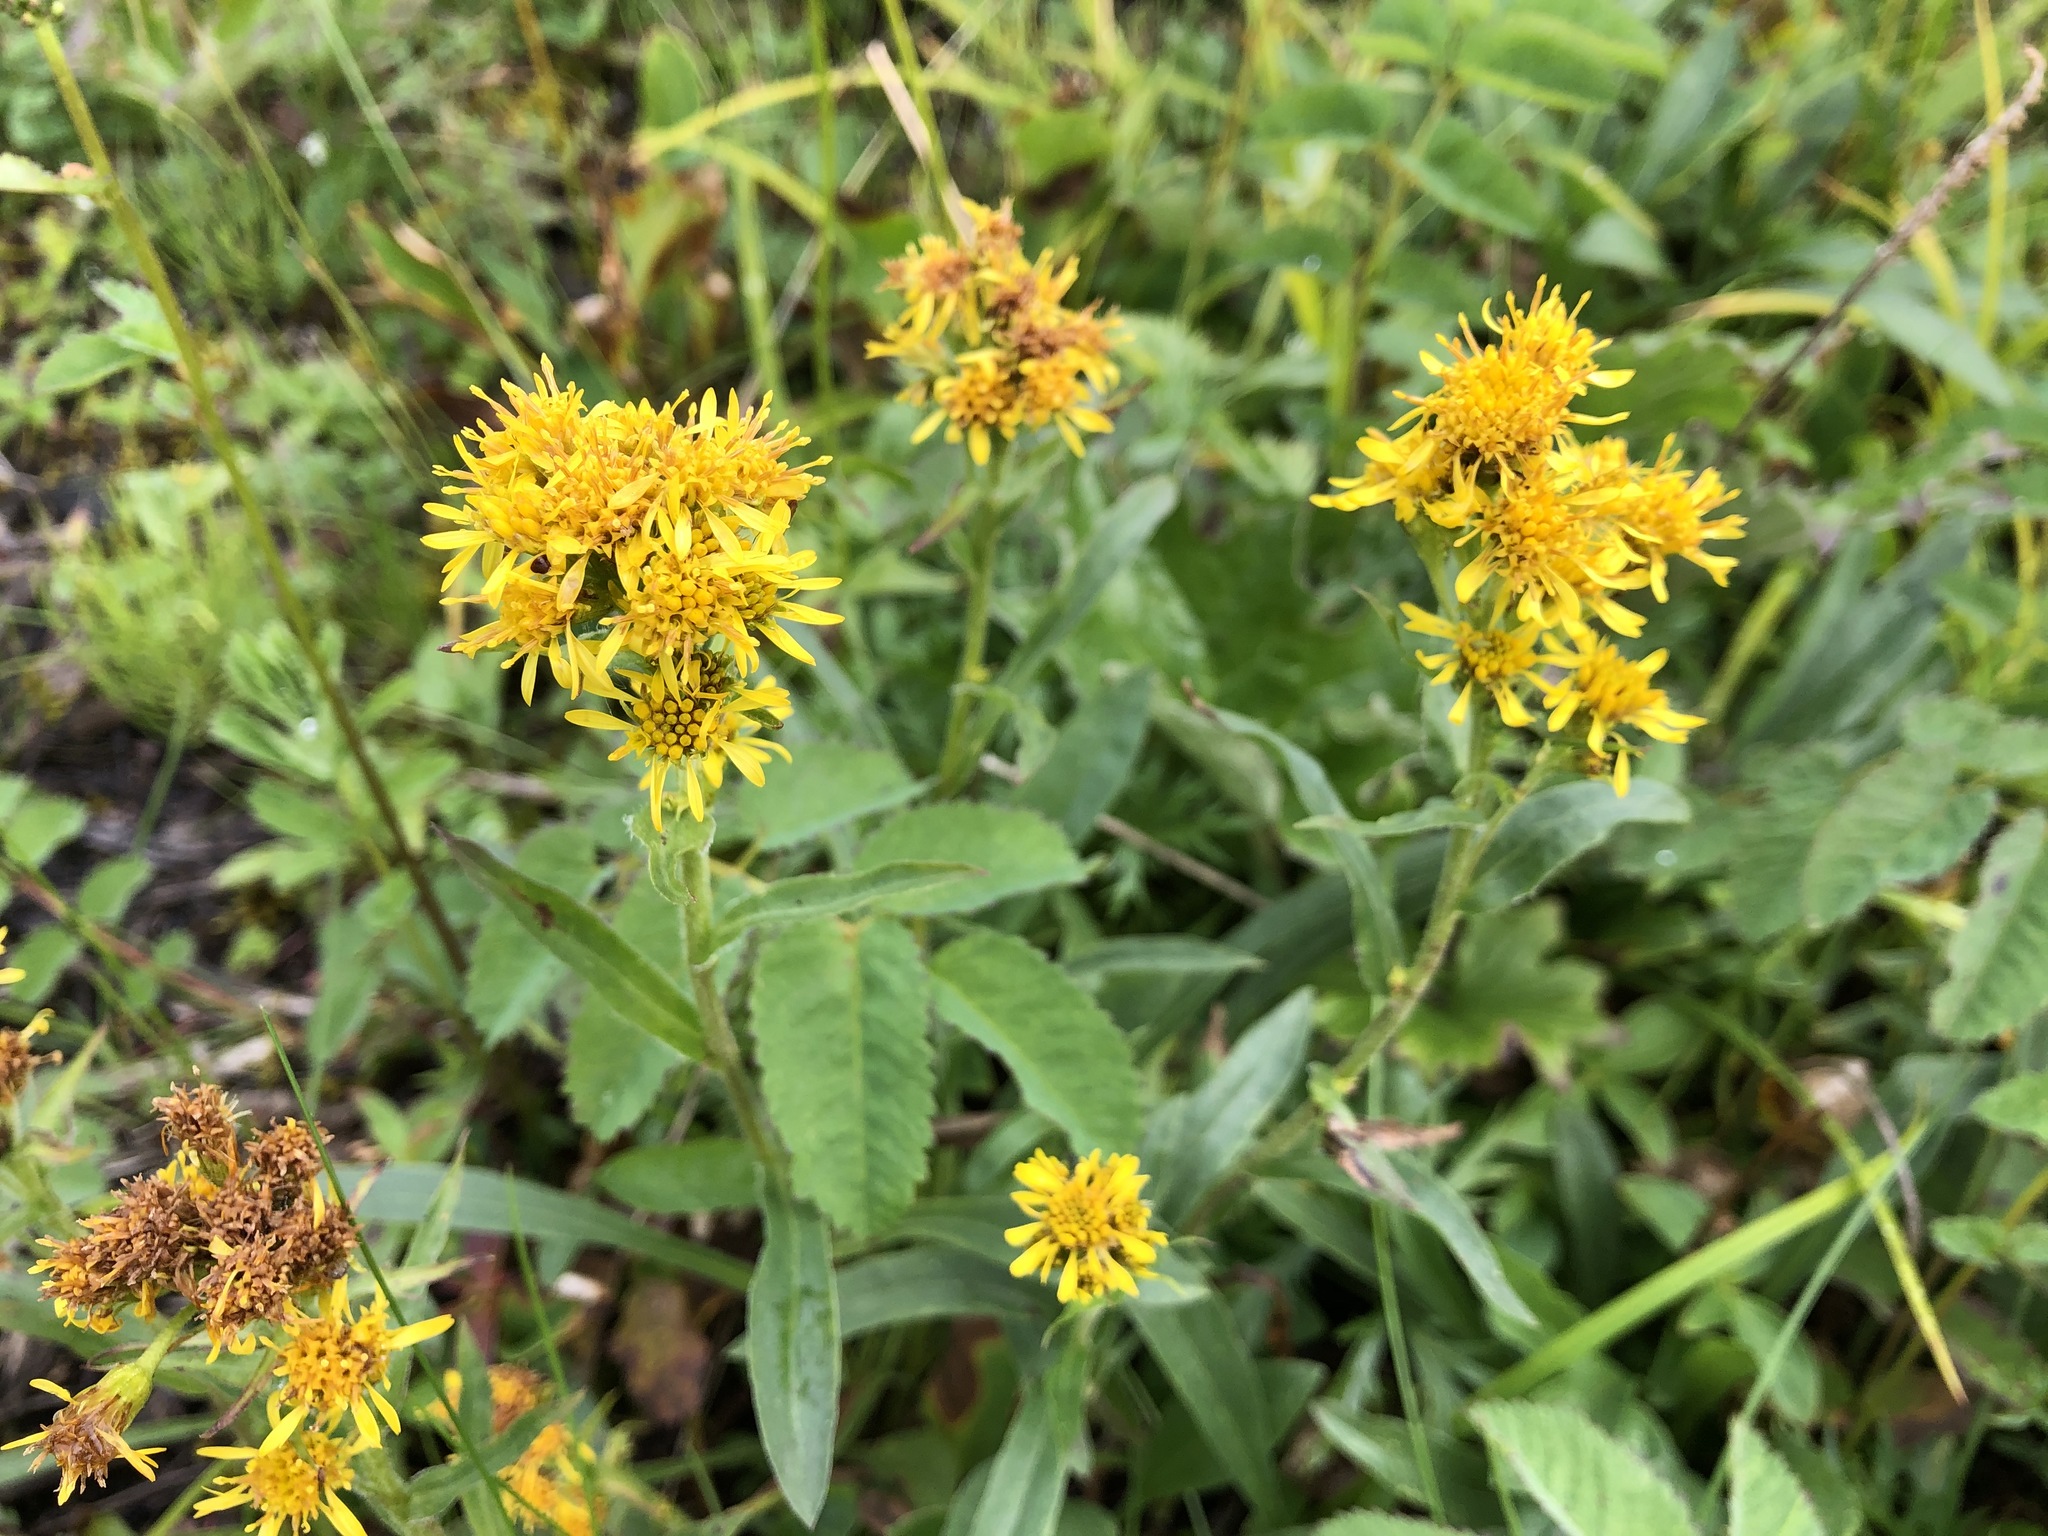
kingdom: Plantae
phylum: Tracheophyta
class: Magnoliopsida
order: Asterales
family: Asteraceae
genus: Solidago
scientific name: Solidago multiradiata
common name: Northern goldenrod
